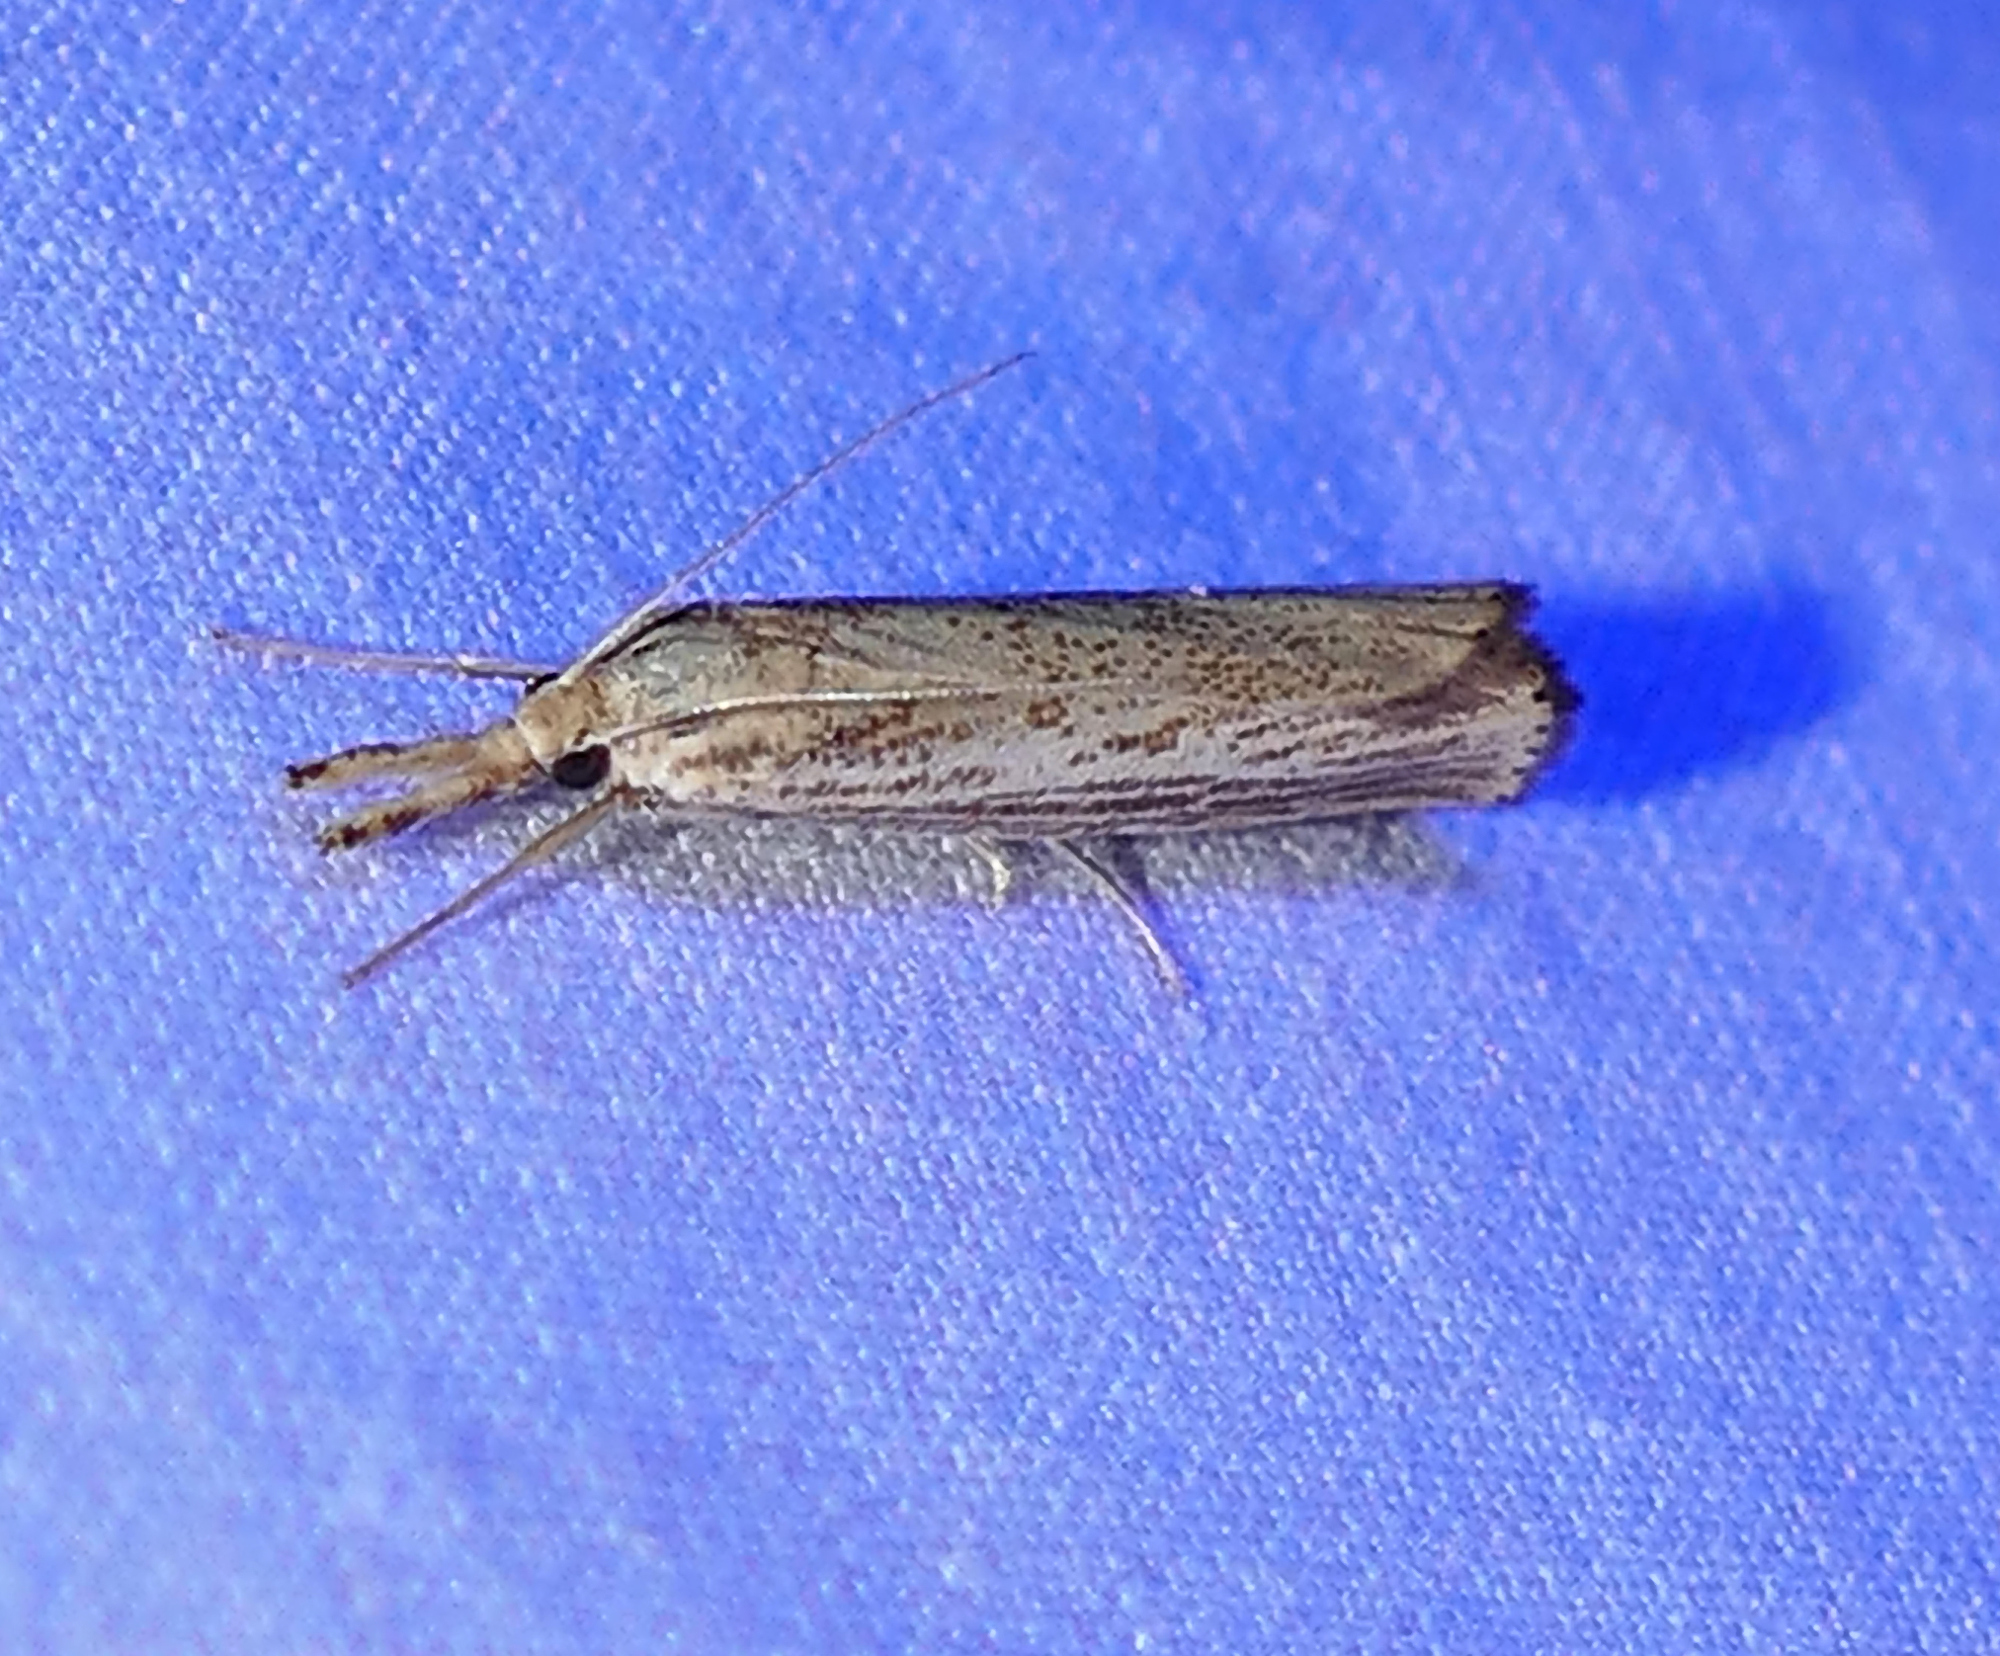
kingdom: Animalia
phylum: Arthropoda
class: Insecta
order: Lepidoptera
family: Crambidae
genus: Agriphila
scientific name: Agriphila vulgivagellus
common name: Vagabond crambus moth
